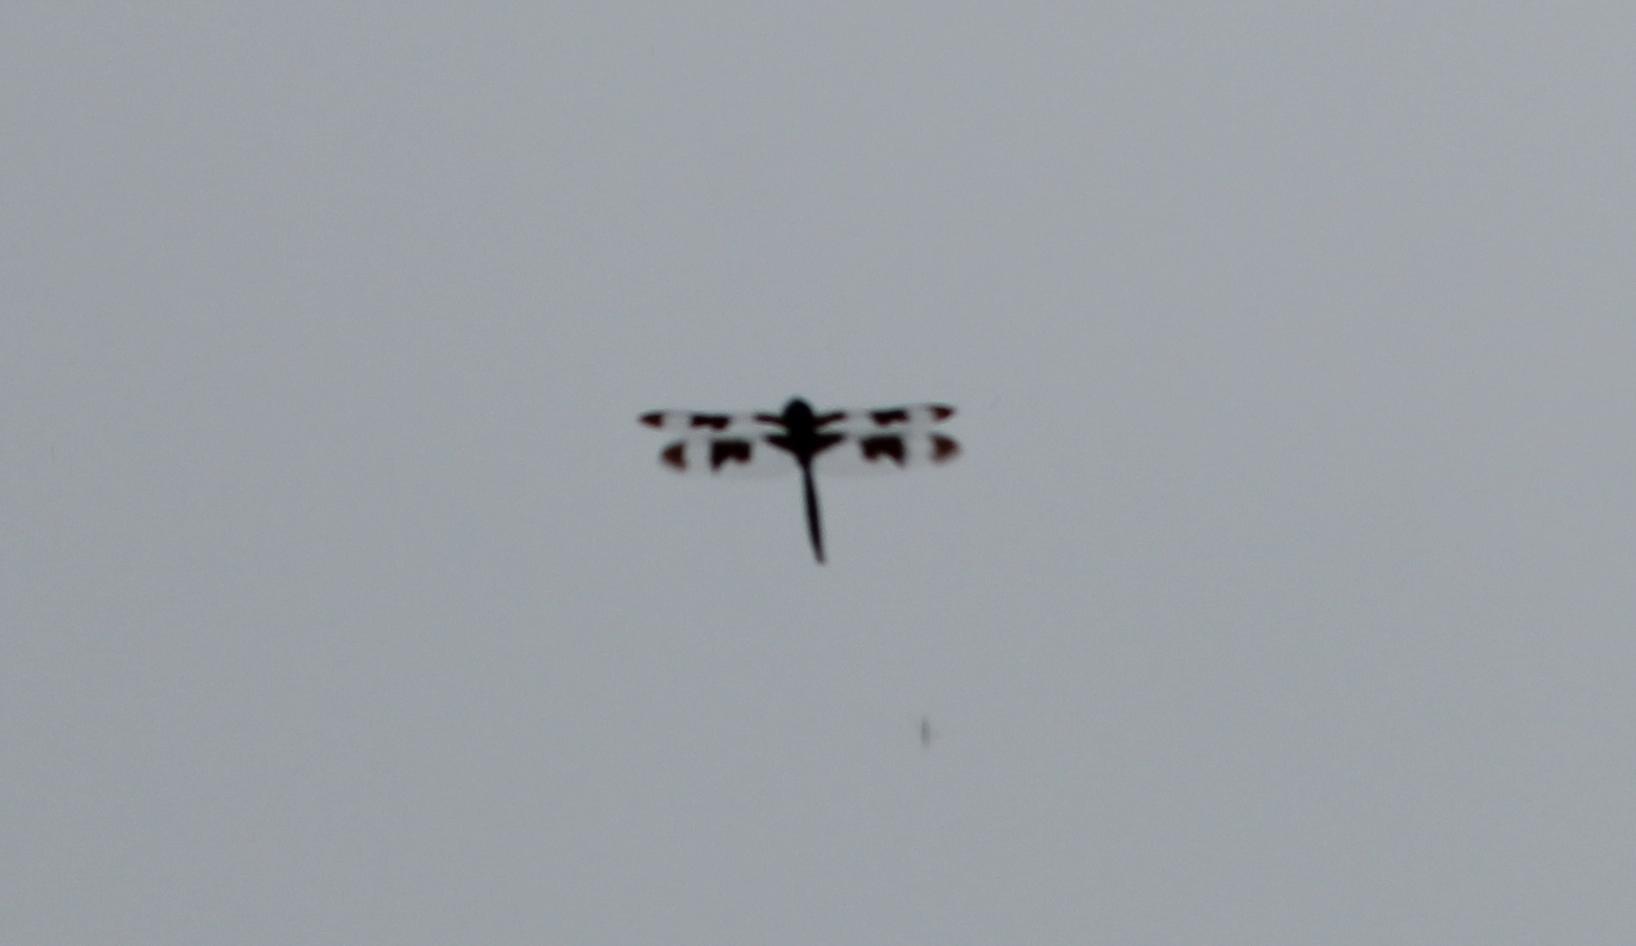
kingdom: Animalia
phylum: Arthropoda
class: Insecta
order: Odonata
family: Corduliidae
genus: Epitheca
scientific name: Epitheca princeps
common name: Prince baskettail
